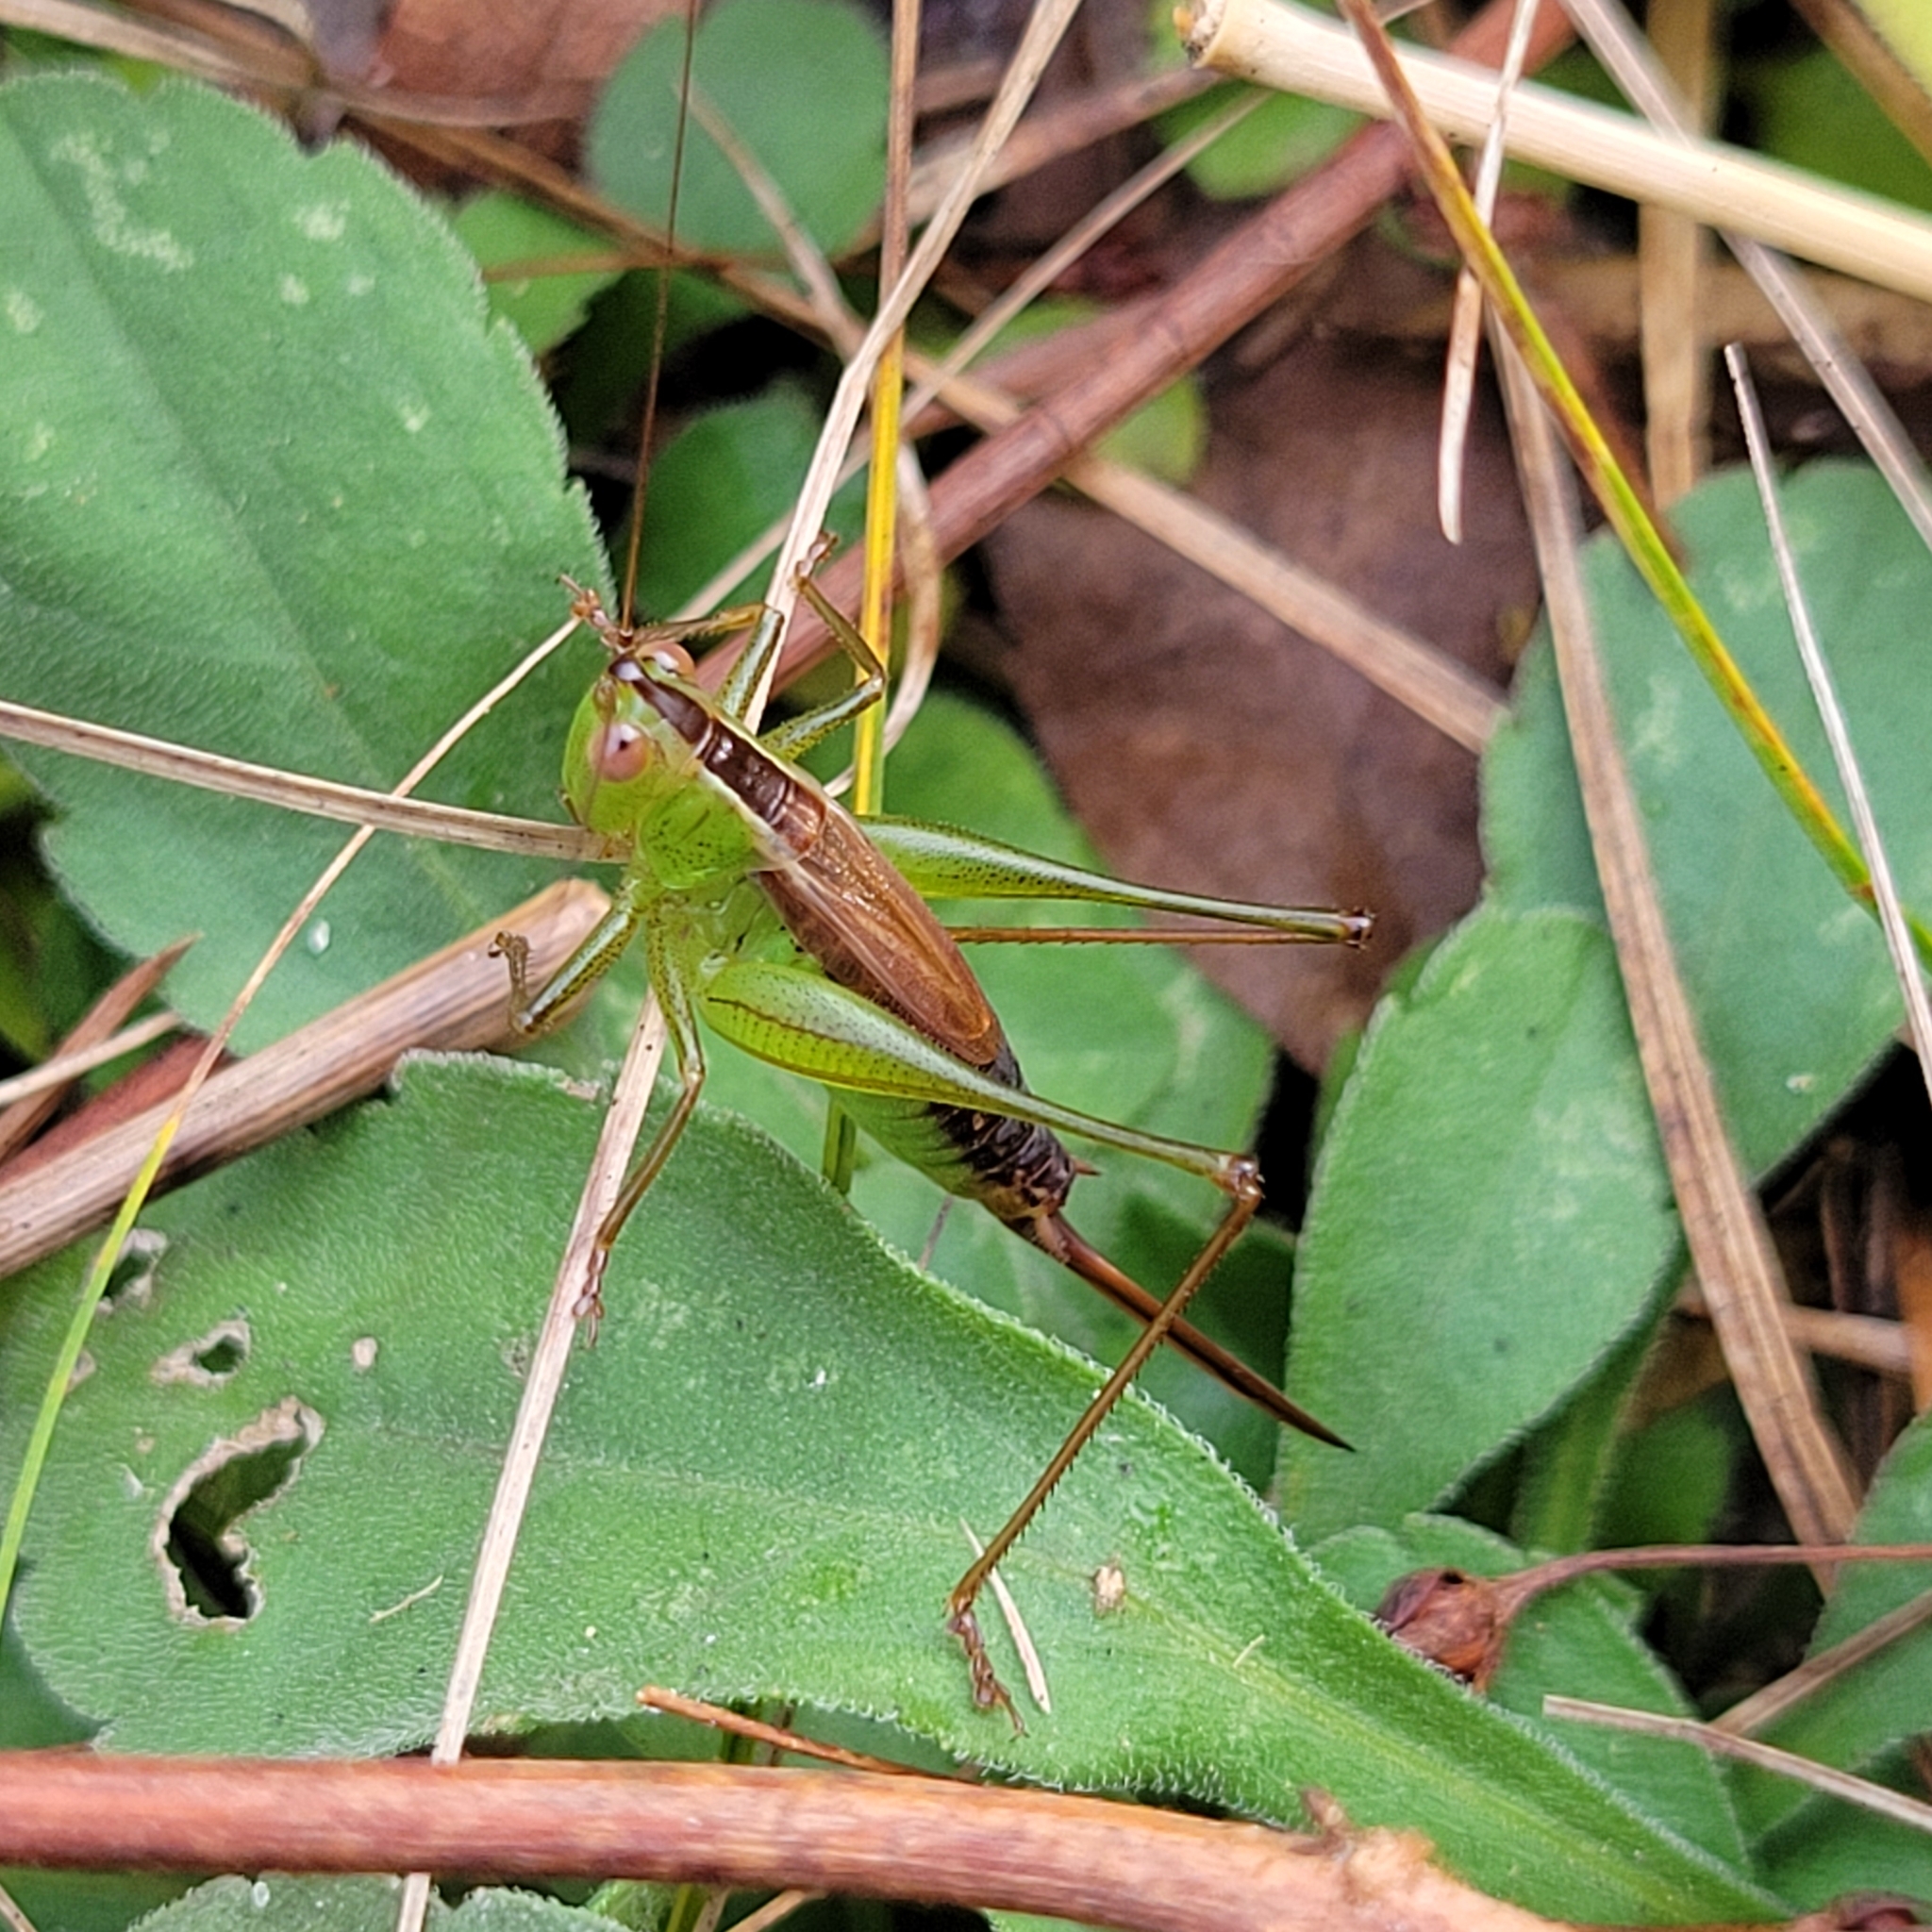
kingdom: Animalia
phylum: Arthropoda
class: Insecta
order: Orthoptera
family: Tettigoniidae
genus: Conocephalus
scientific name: Conocephalus brevipennis
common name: Short-winged meadow katydid
